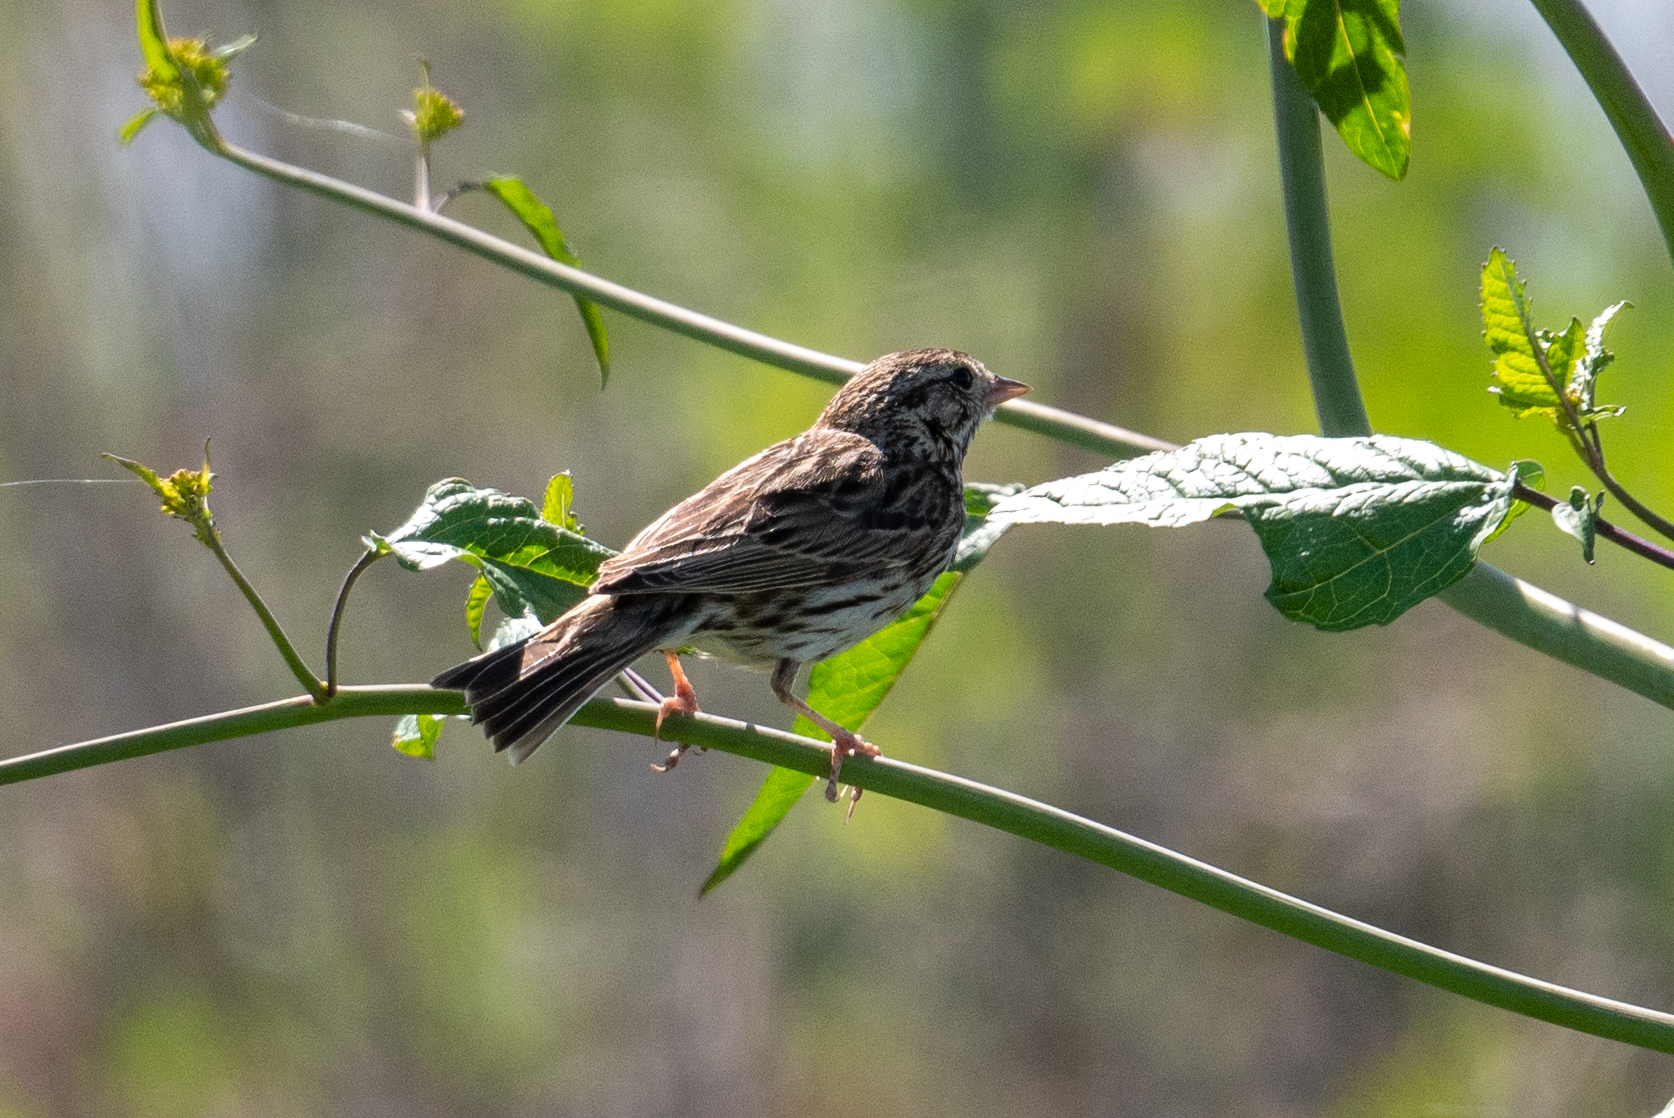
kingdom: Animalia
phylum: Chordata
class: Aves
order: Passeriformes
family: Passerellidae
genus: Passerculus
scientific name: Passerculus sandwichensis
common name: Savannah sparrow
